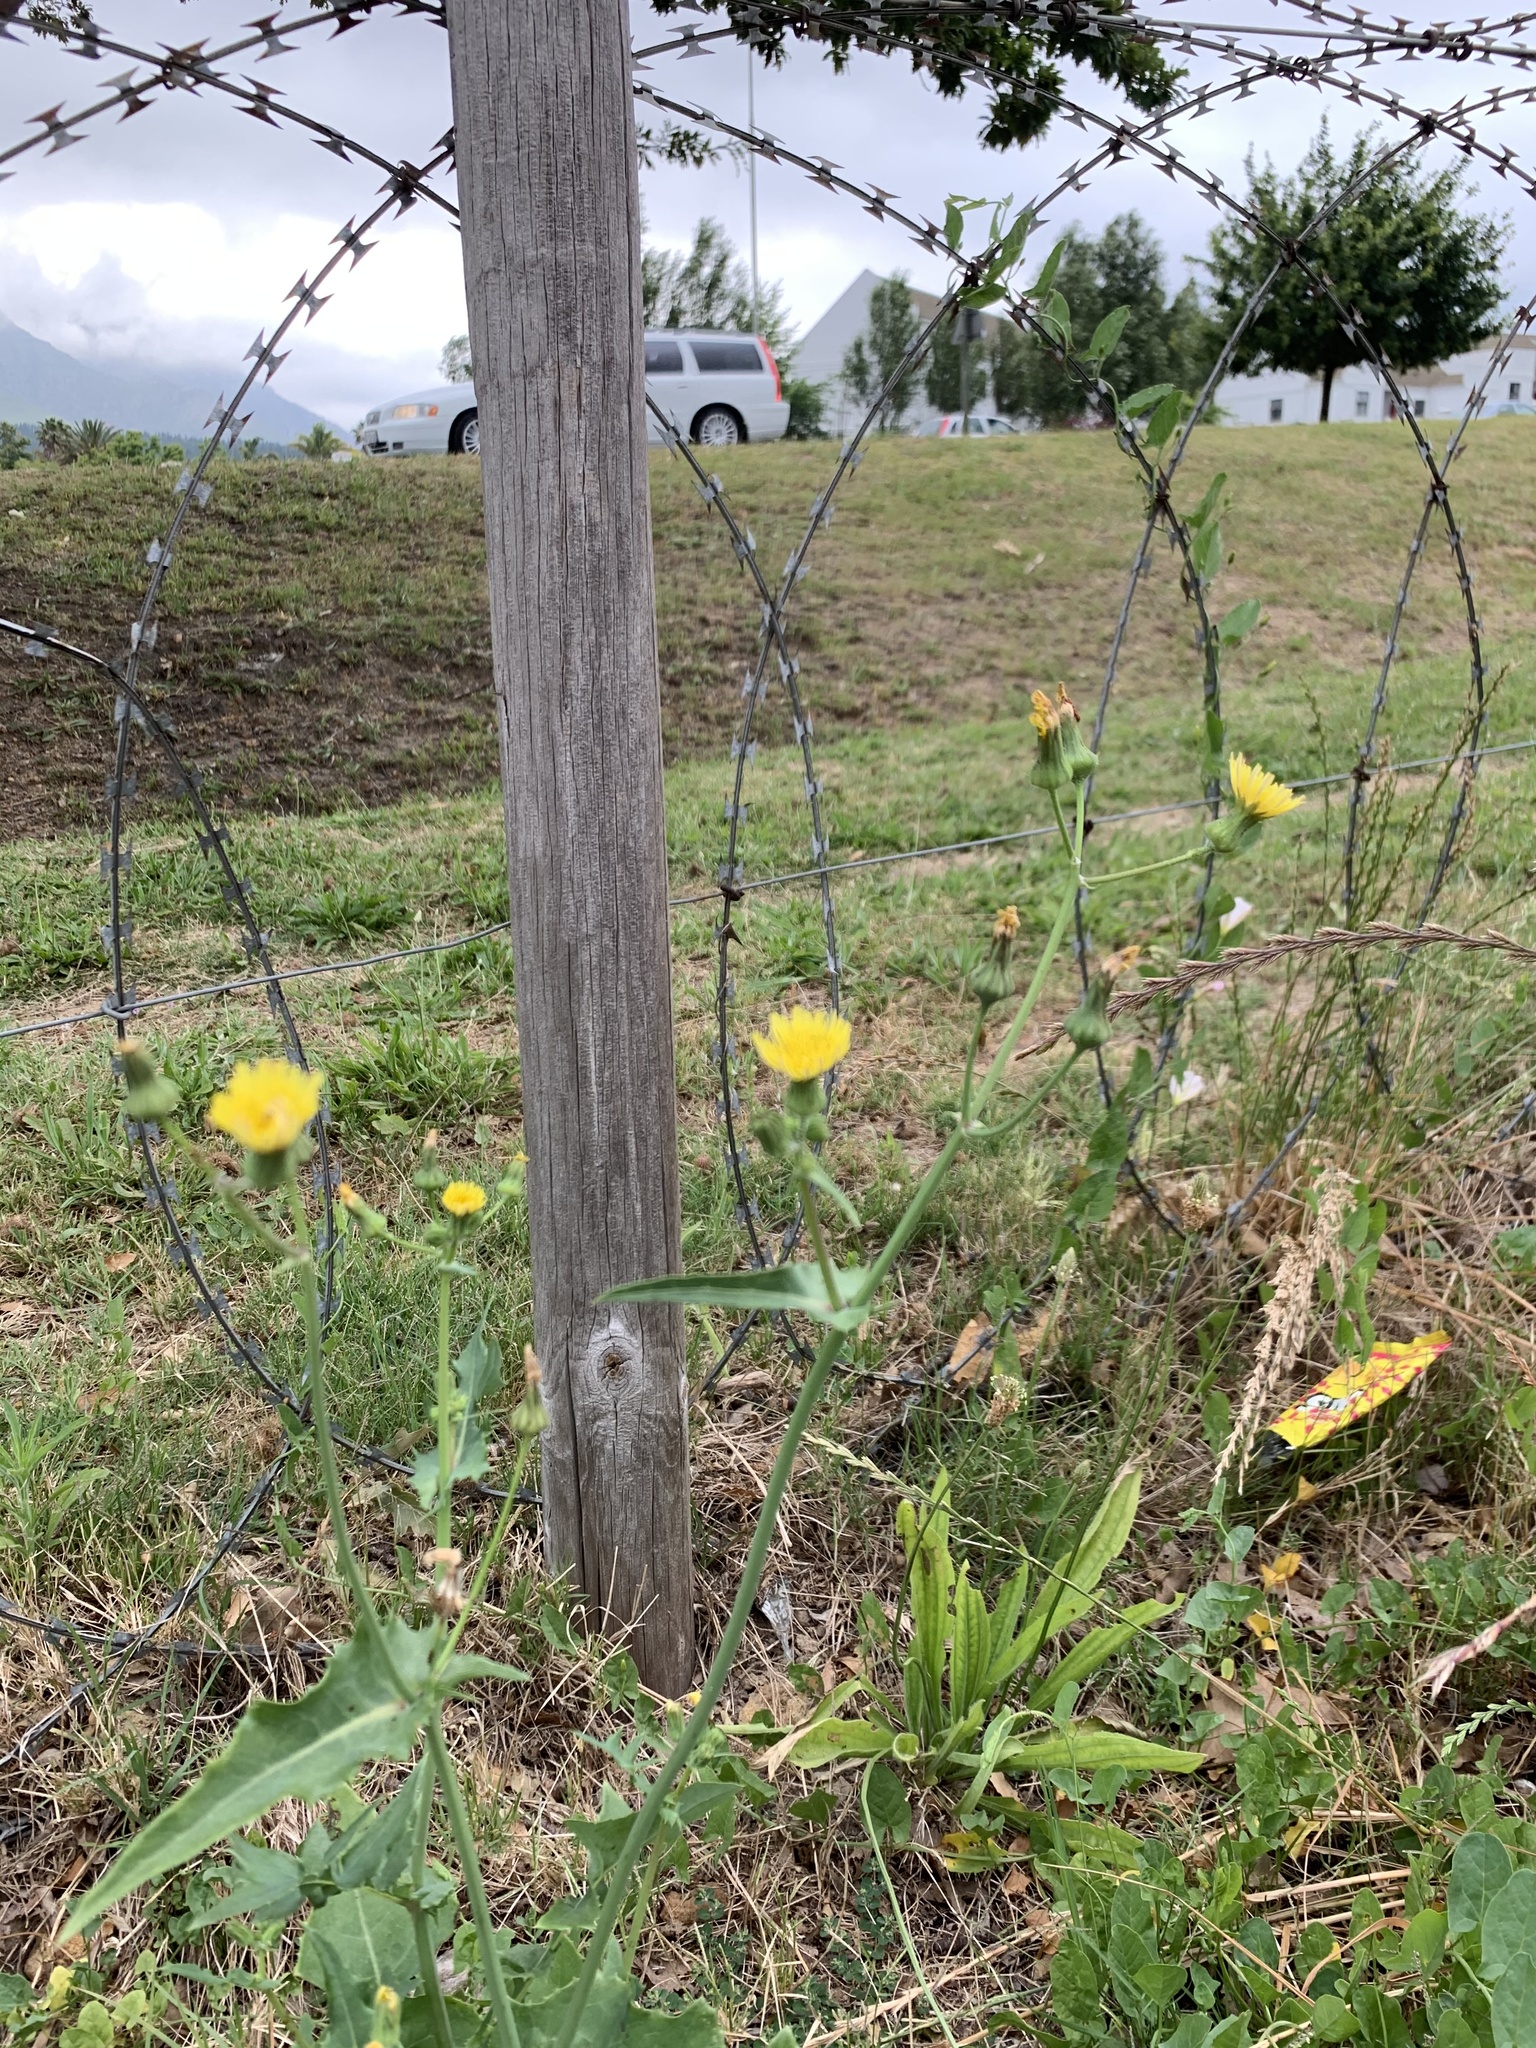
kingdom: Plantae
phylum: Tracheophyta
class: Magnoliopsida
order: Asterales
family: Asteraceae
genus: Sonchus
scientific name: Sonchus oleraceus
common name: Common sowthistle
